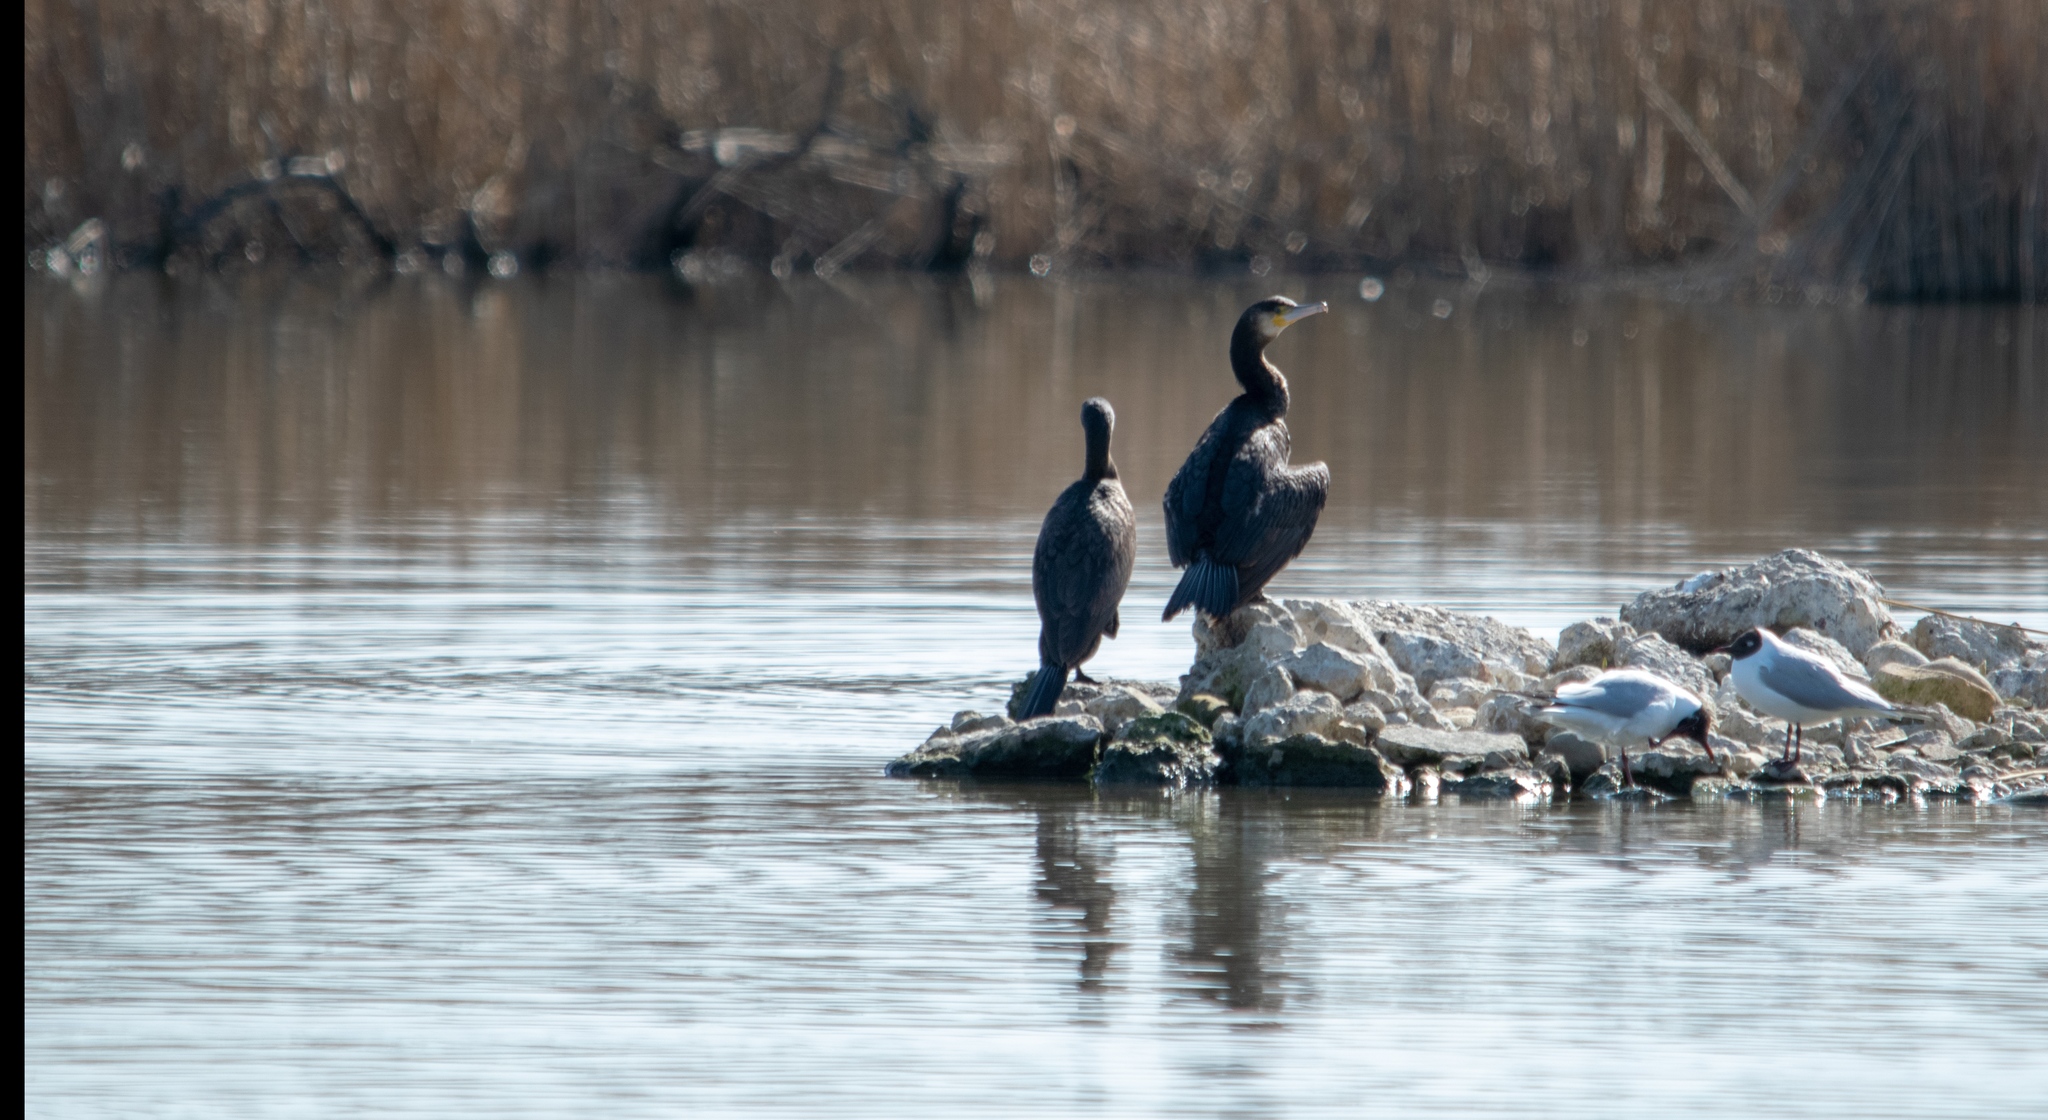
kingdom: Animalia
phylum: Chordata
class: Aves
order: Suliformes
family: Phalacrocoracidae
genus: Phalacrocorax
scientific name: Phalacrocorax carbo
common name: Great cormorant
